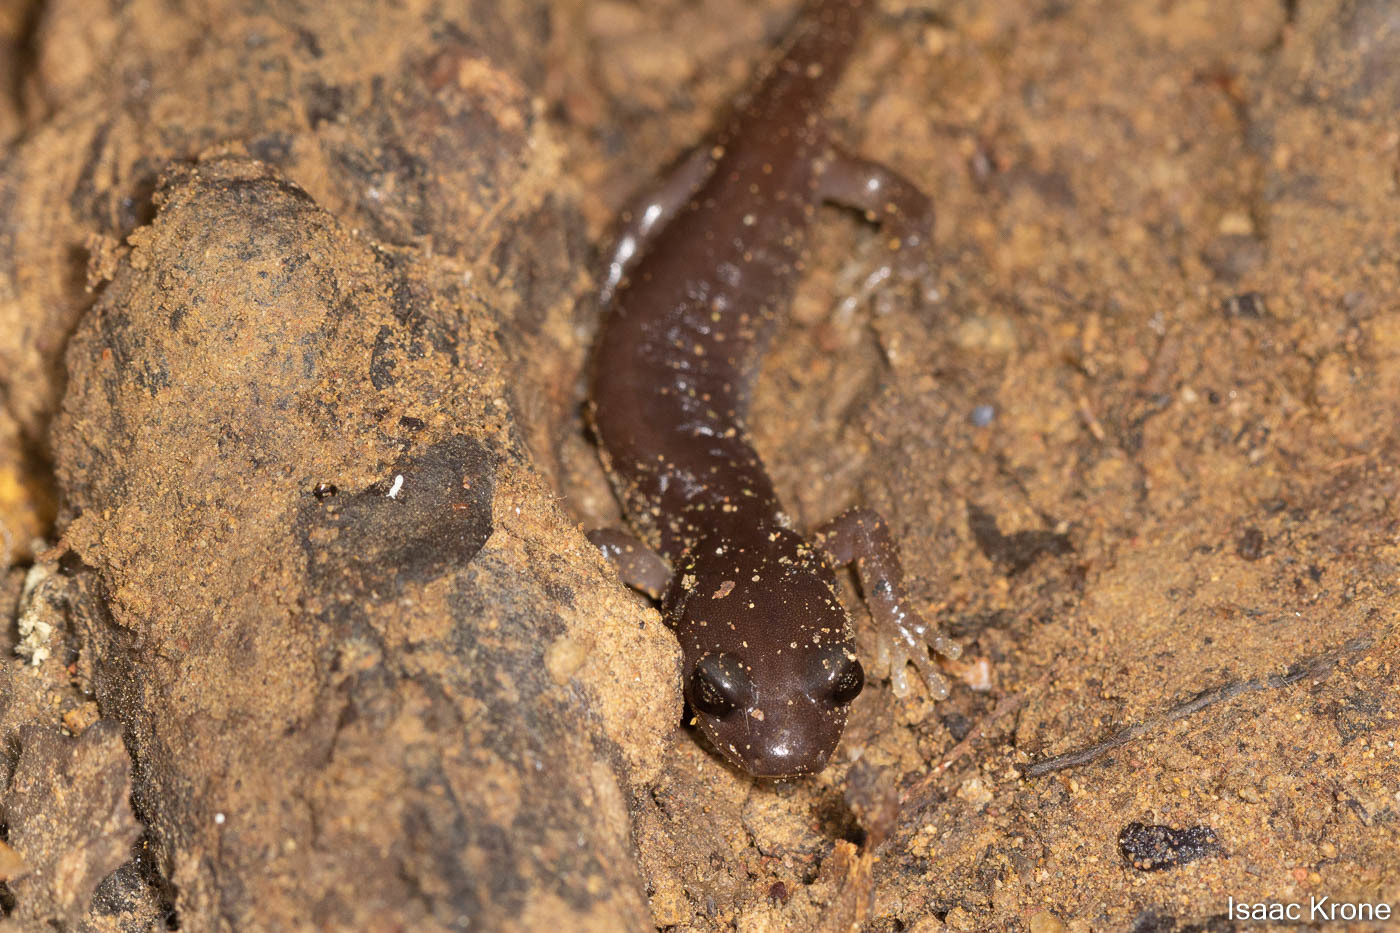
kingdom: Animalia
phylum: Chordata
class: Amphibia
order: Caudata
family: Plethodontidae
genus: Aneides
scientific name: Aneides lugubris
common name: Arboreal salamander
